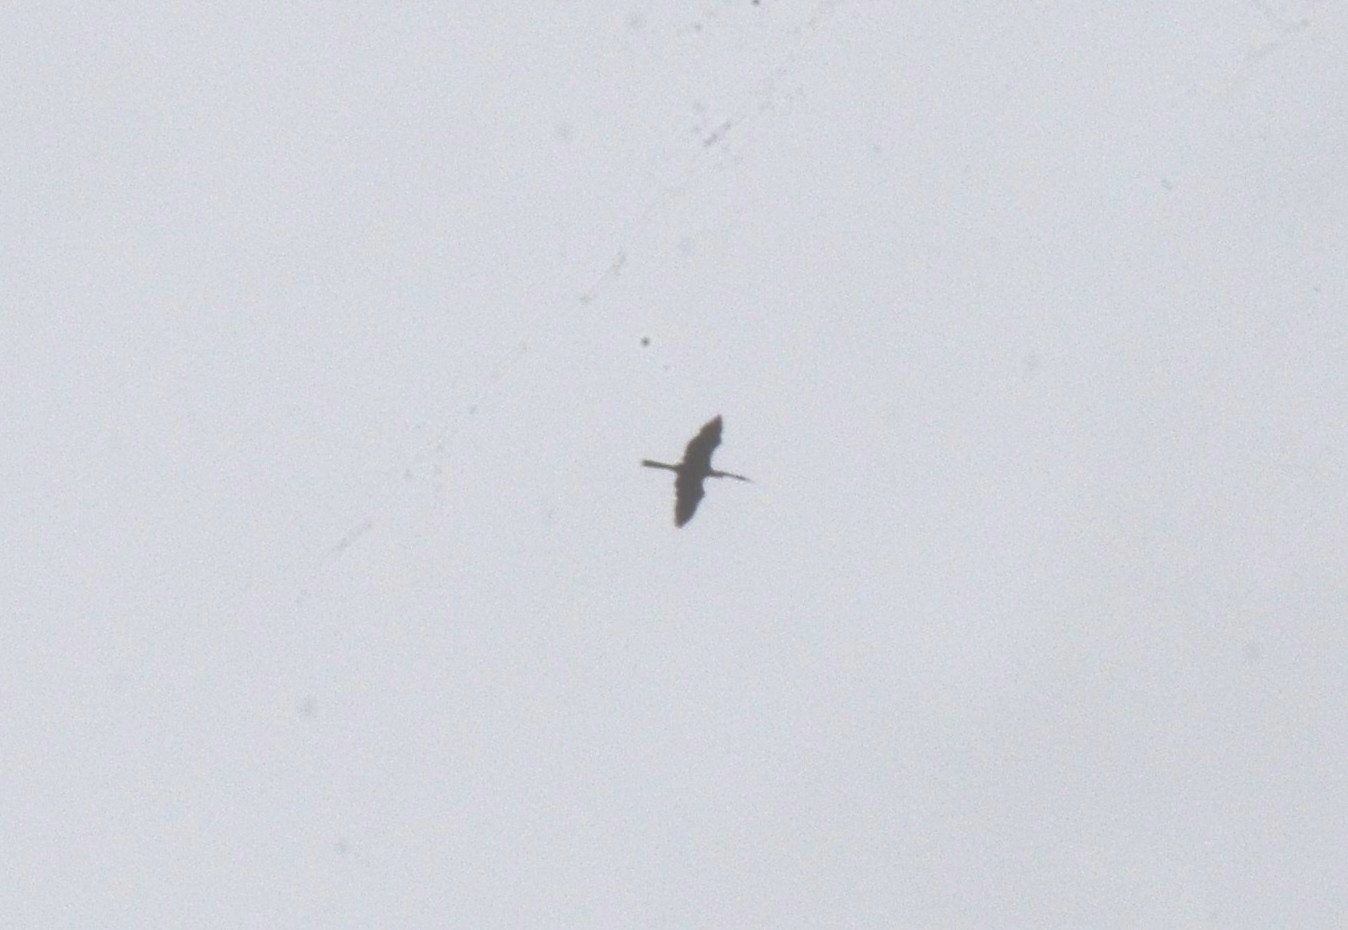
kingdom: Animalia
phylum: Chordata
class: Aves
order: Suliformes
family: Anhingidae
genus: Anhinga
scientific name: Anhinga melanogaster
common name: Oriental darter
